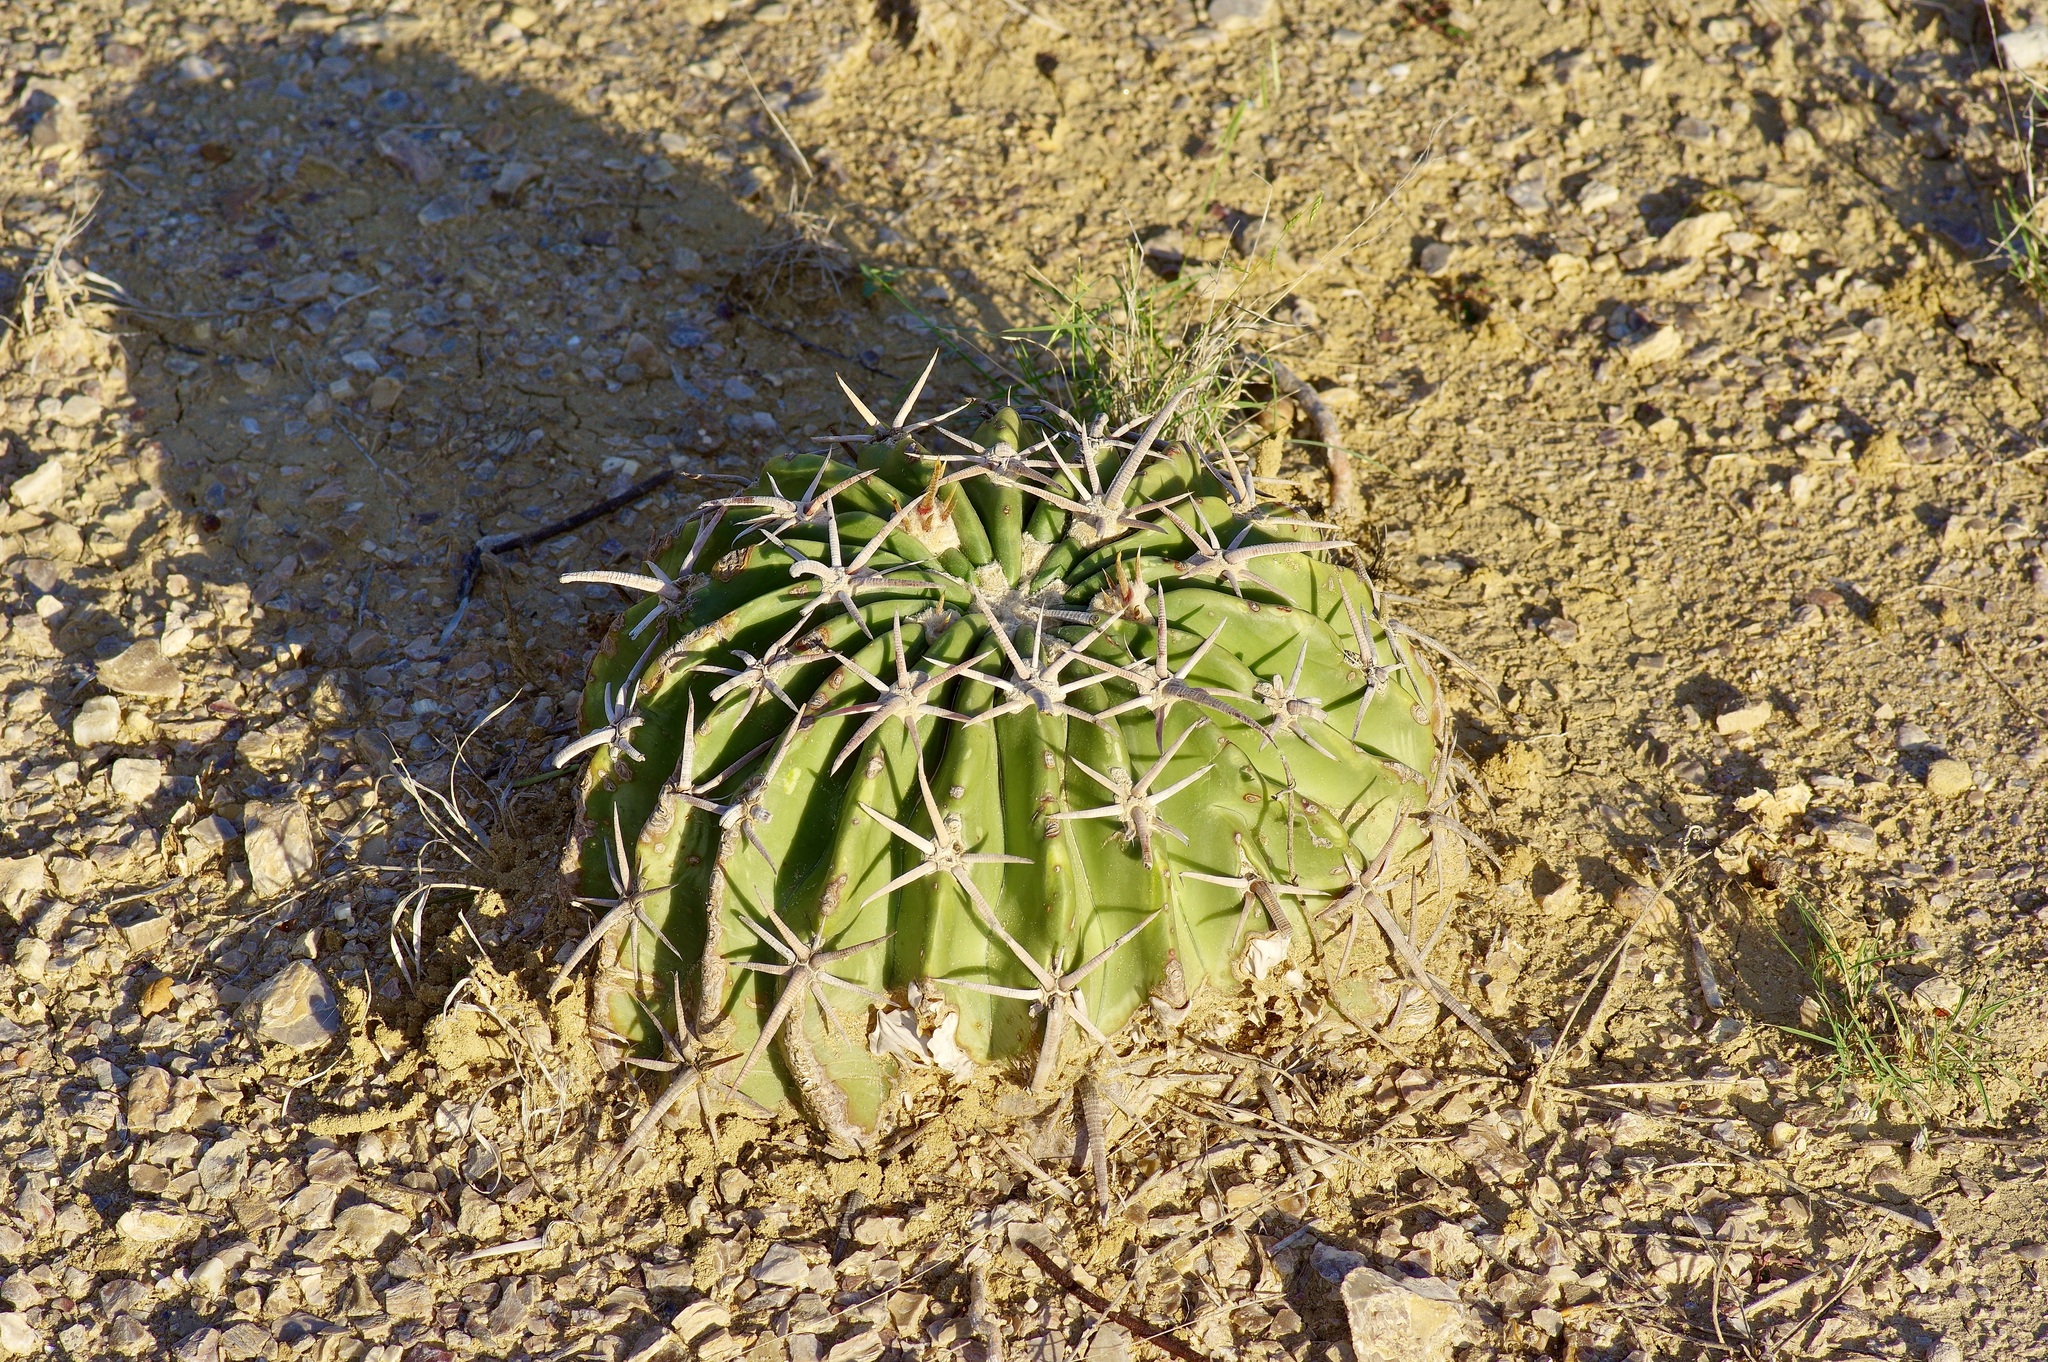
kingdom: Plantae
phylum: Tracheophyta
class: Magnoliopsida
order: Caryophyllales
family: Cactaceae
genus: Echinocactus
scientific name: Echinocactus texensis
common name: Devil's pincushion
